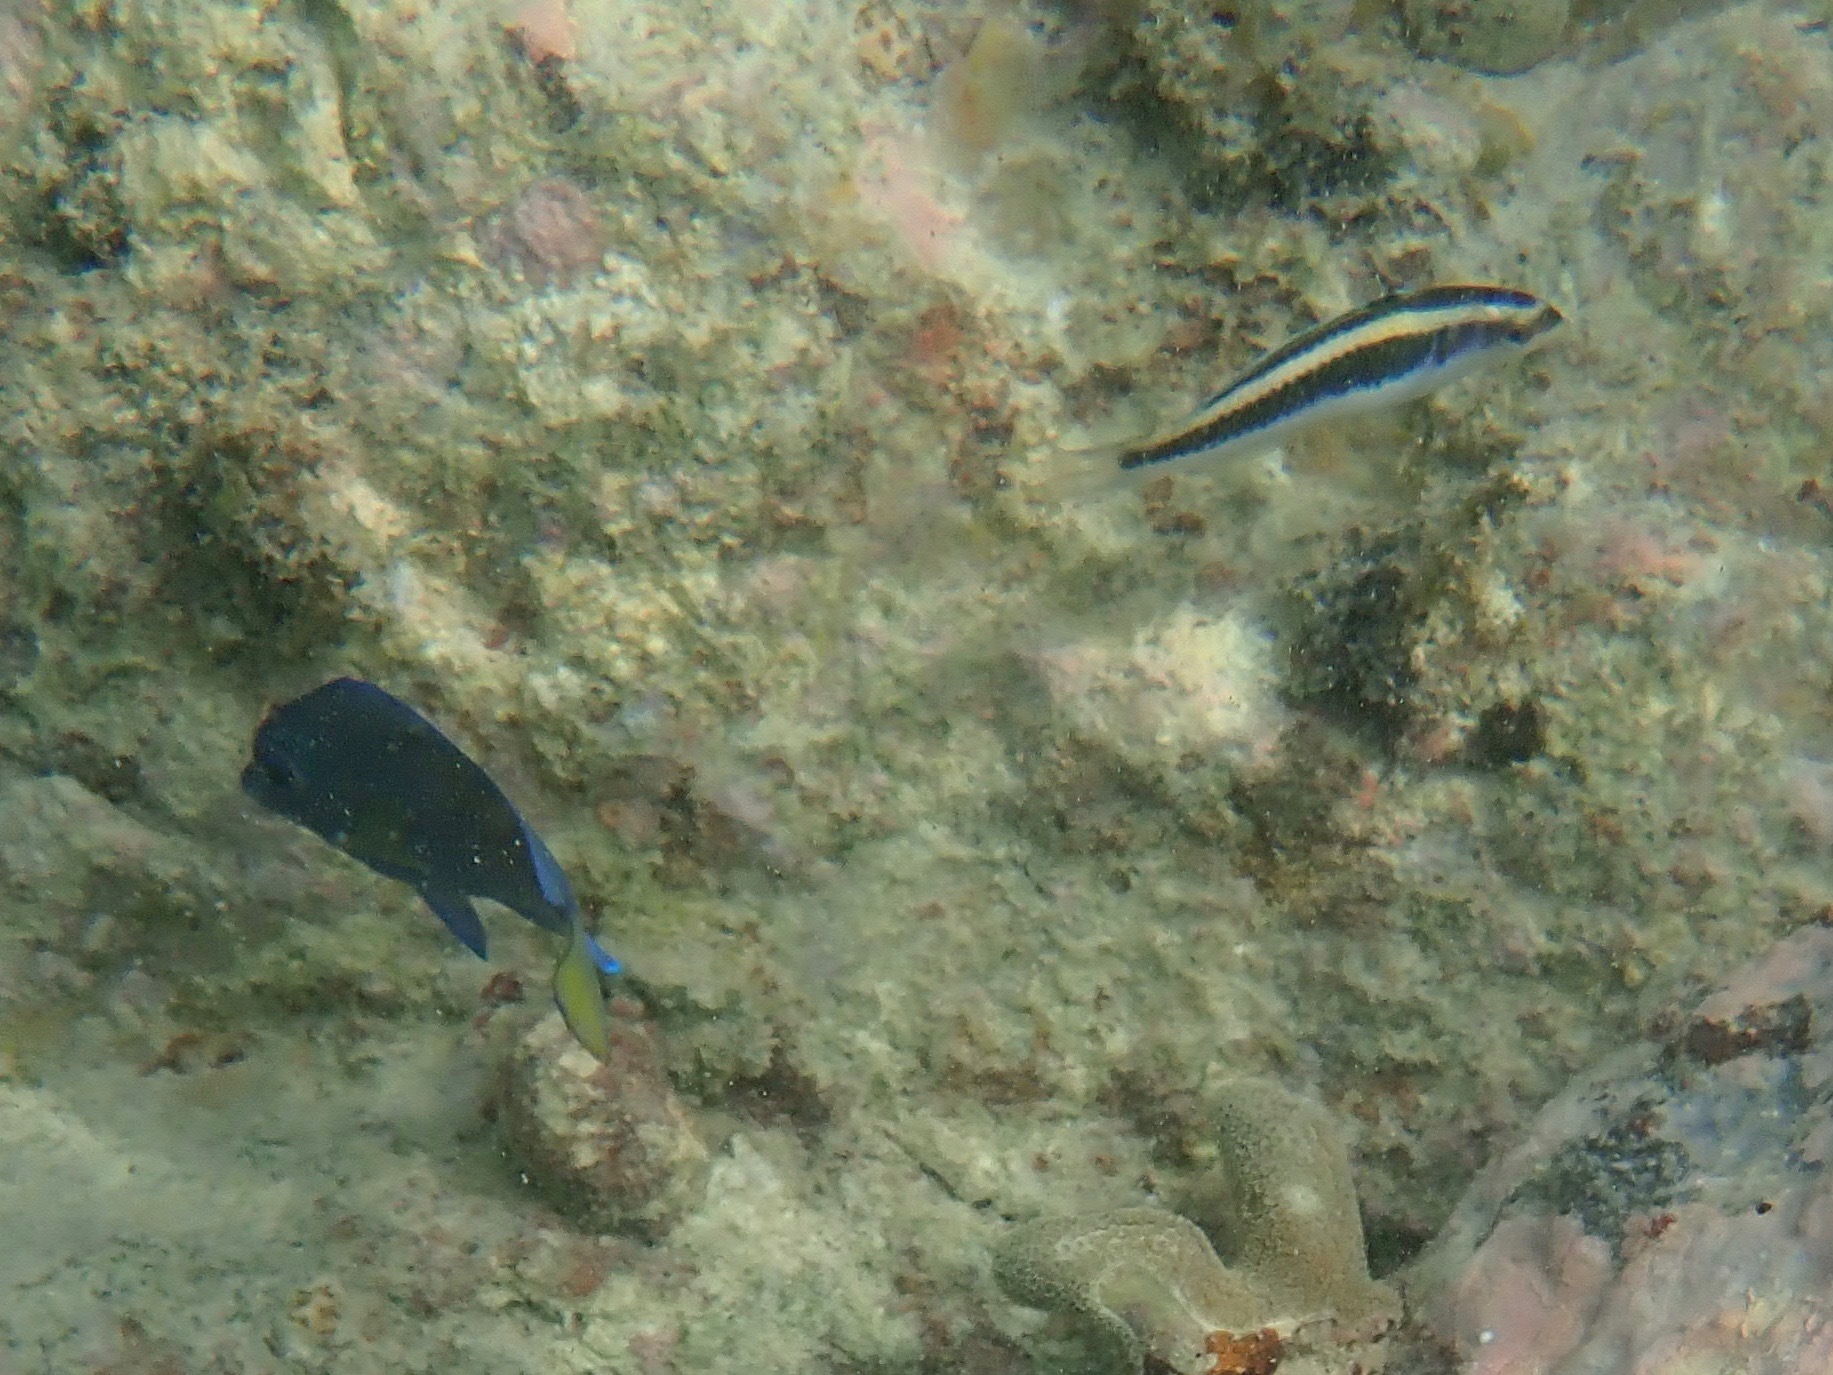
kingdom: Animalia
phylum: Chordata
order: Perciformes
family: Labridae
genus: Thalassoma
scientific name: Thalassoma bifasciatum
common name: Bluehead wrasse
